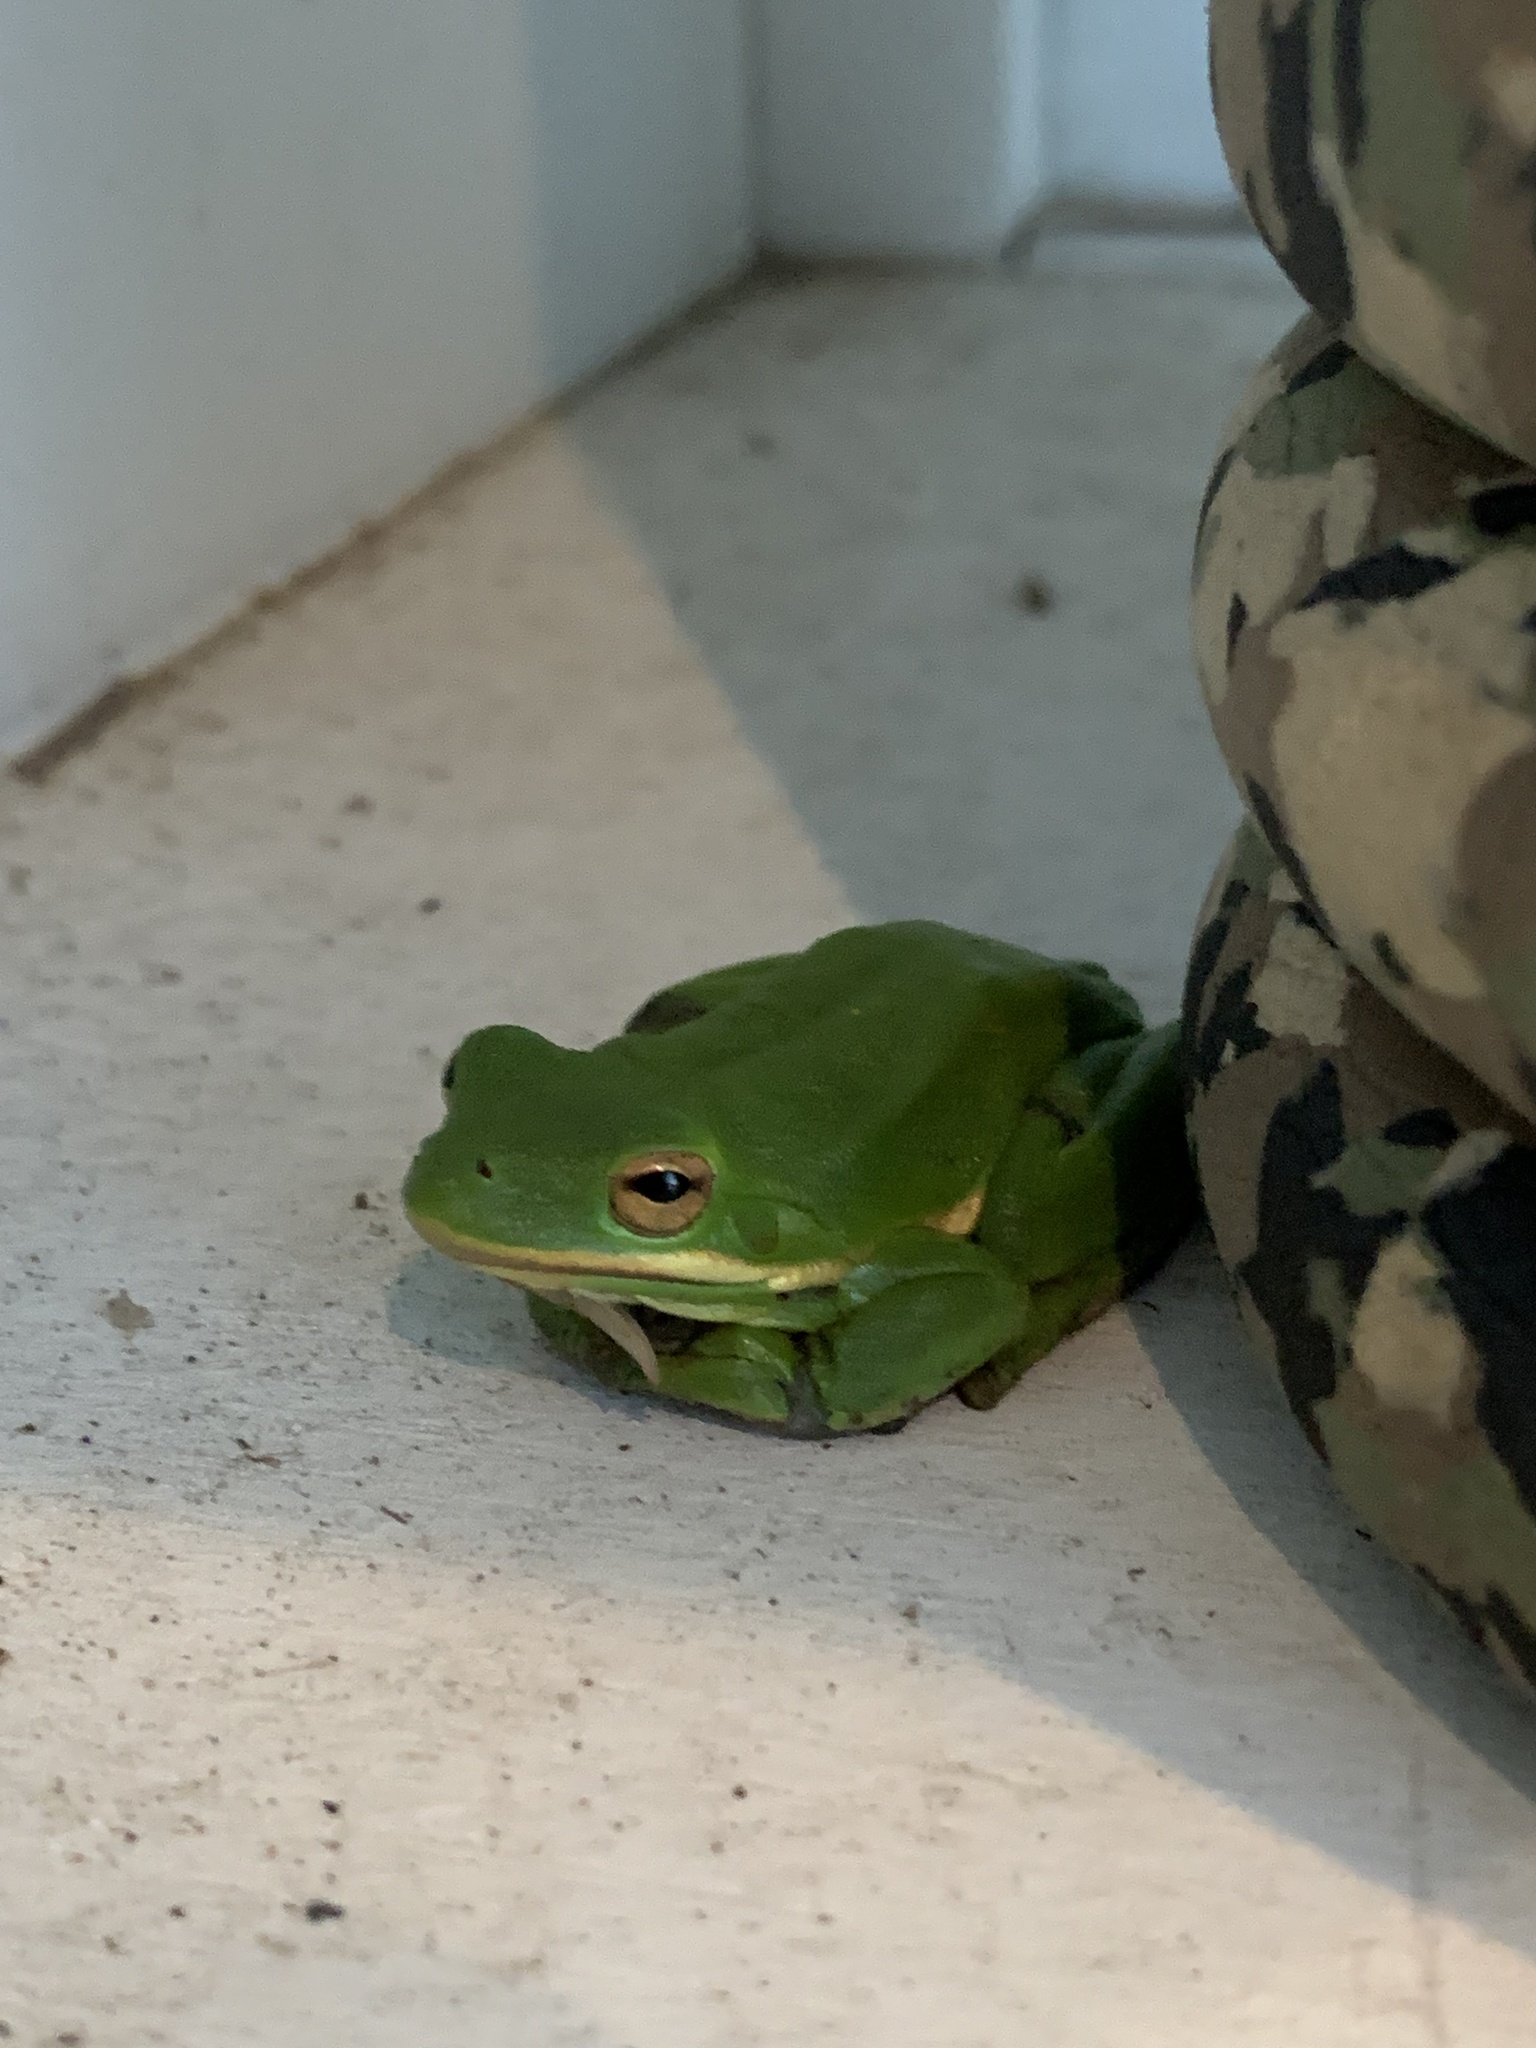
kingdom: Animalia
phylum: Chordata
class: Amphibia
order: Anura
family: Hylidae
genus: Dryophytes
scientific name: Dryophytes cinereus
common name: Green treefrog
